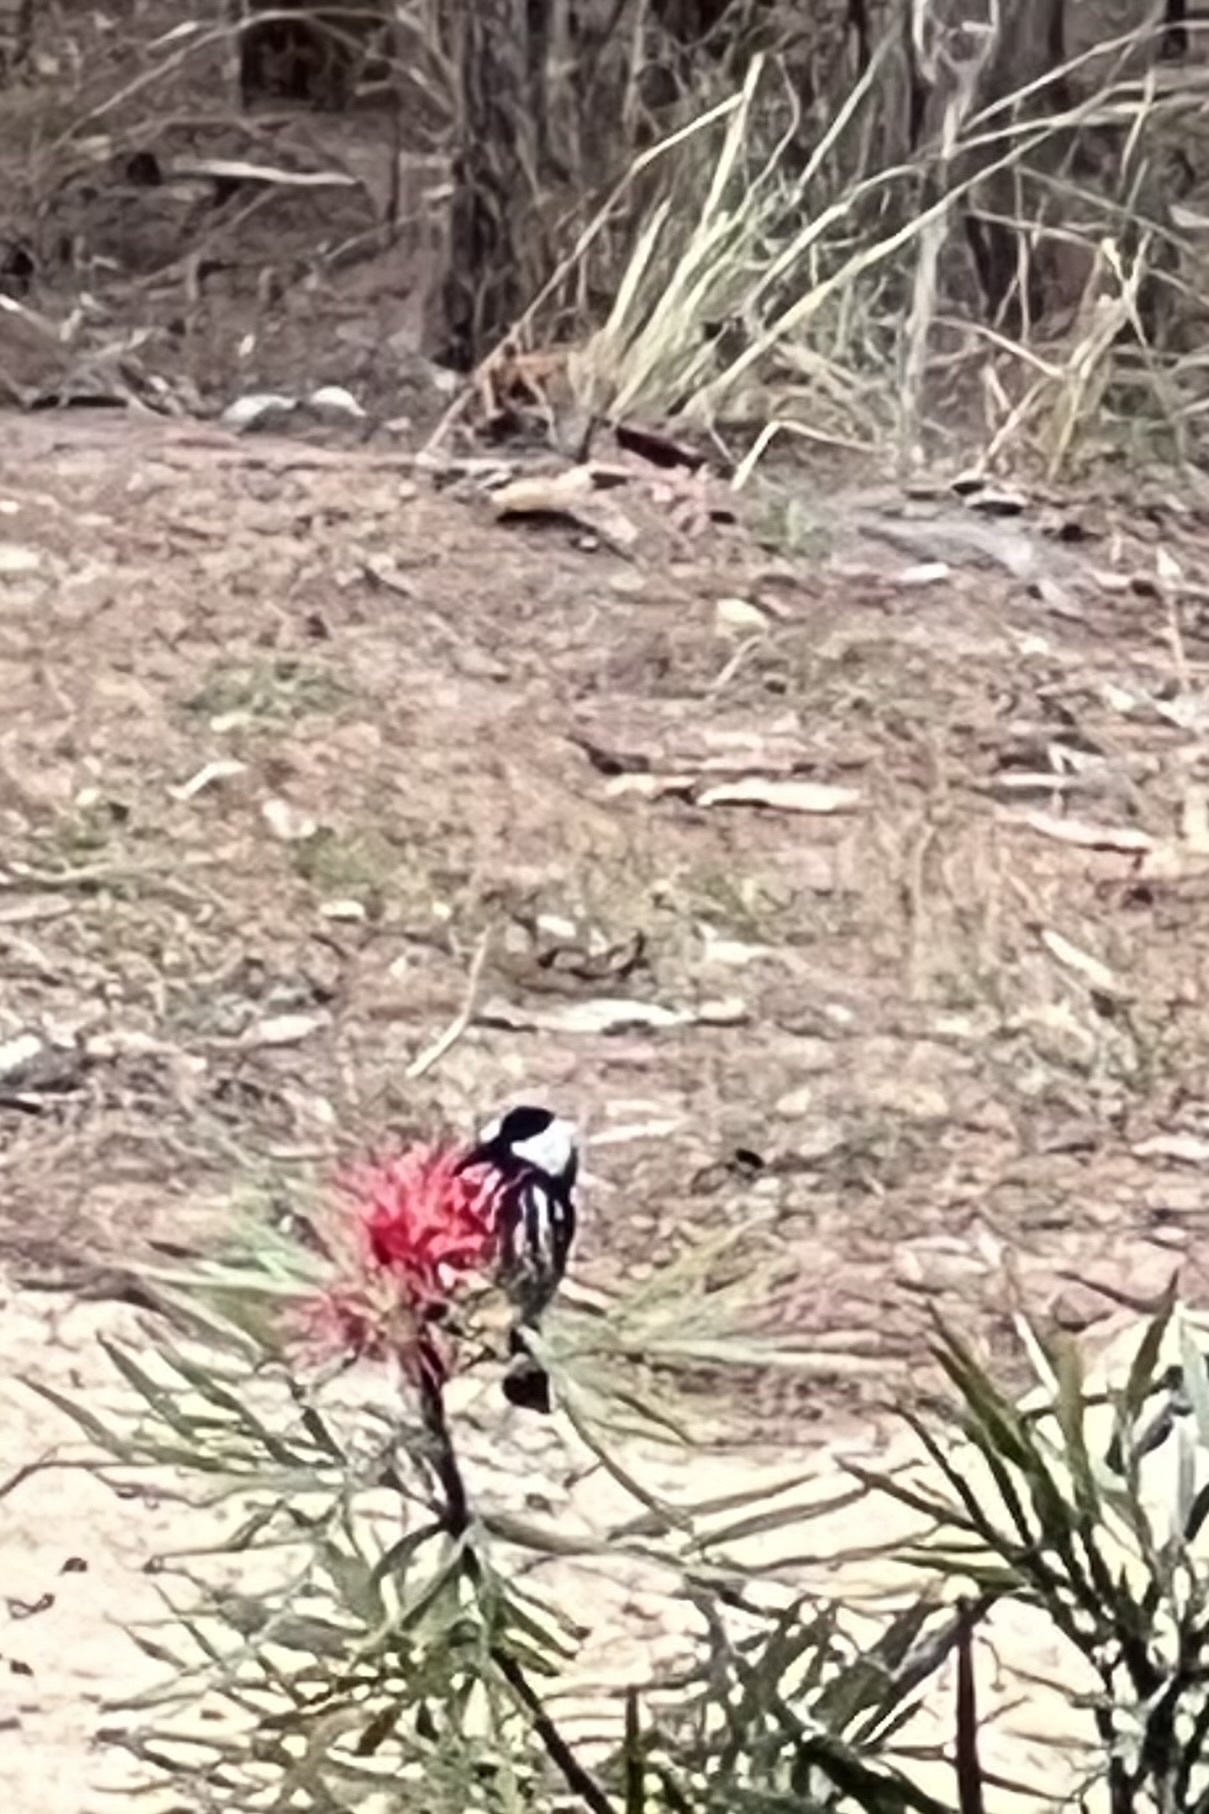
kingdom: Animalia
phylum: Chordata
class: Aves
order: Passeriformes
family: Meliphagidae
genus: Phylidonyris
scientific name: Phylidonyris niger
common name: White-cheeked honeyeater
